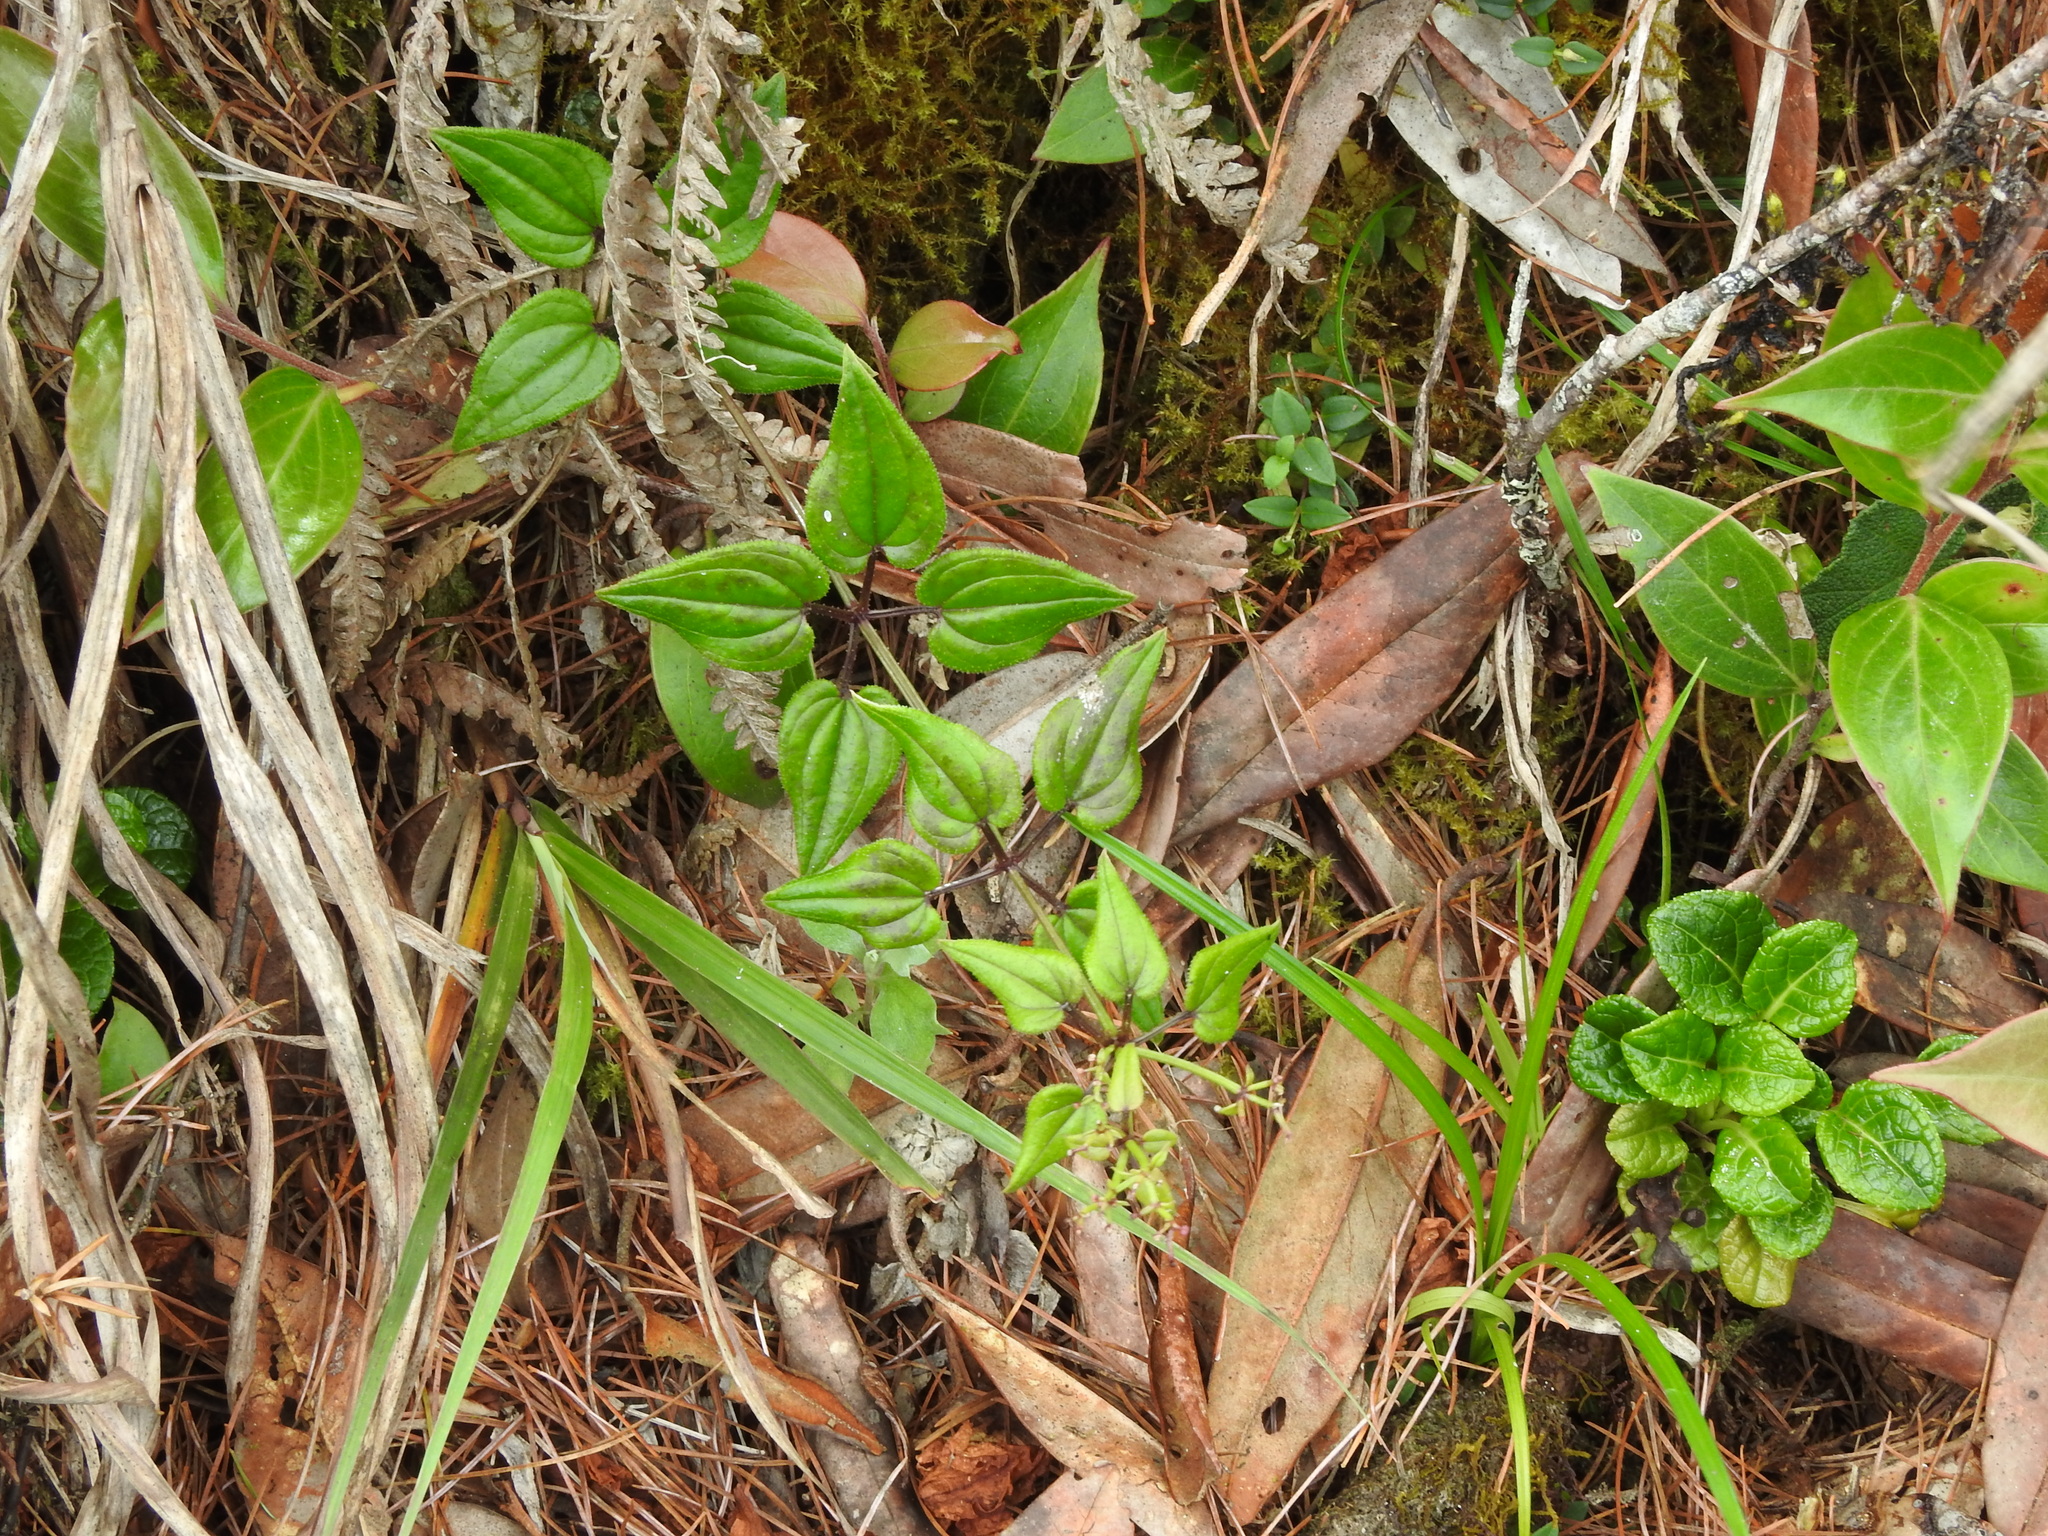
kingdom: Plantae
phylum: Tracheophyta
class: Magnoliopsida
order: Gentianales
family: Rubiaceae
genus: Rubia
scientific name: Rubia argyi
